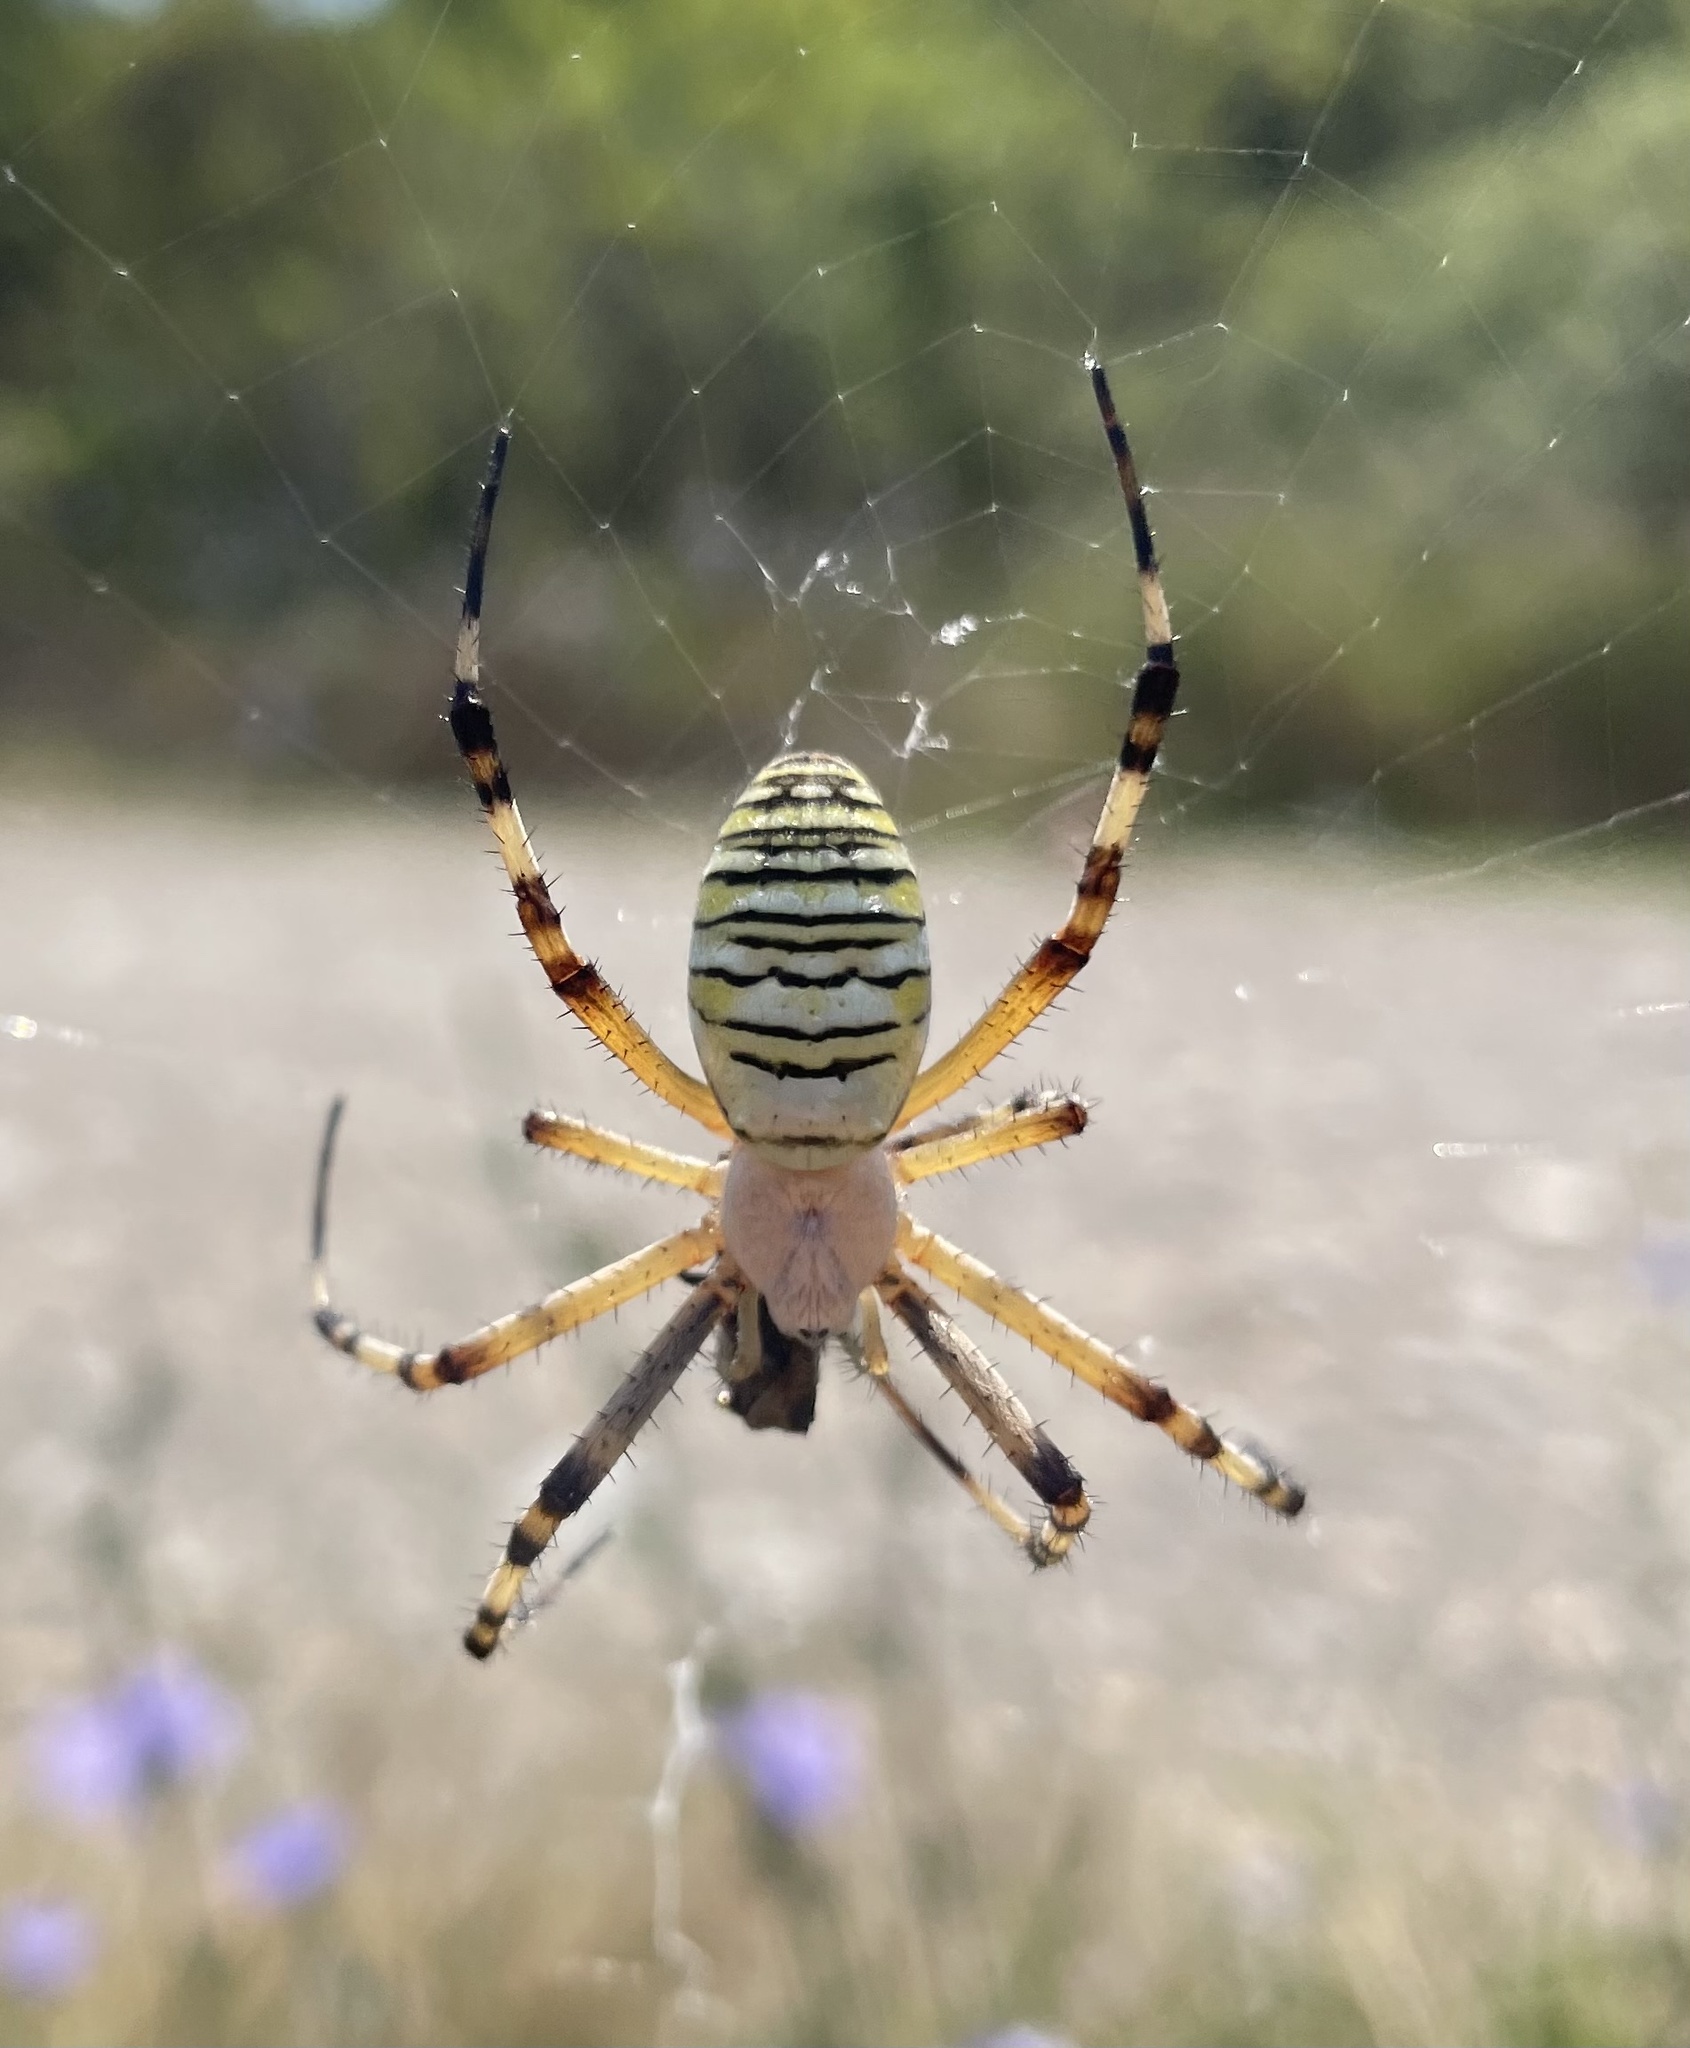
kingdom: Animalia
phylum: Arthropoda
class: Arachnida
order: Araneae
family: Araneidae
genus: Argiope
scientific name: Argiope bruennichi
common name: Wasp spider
